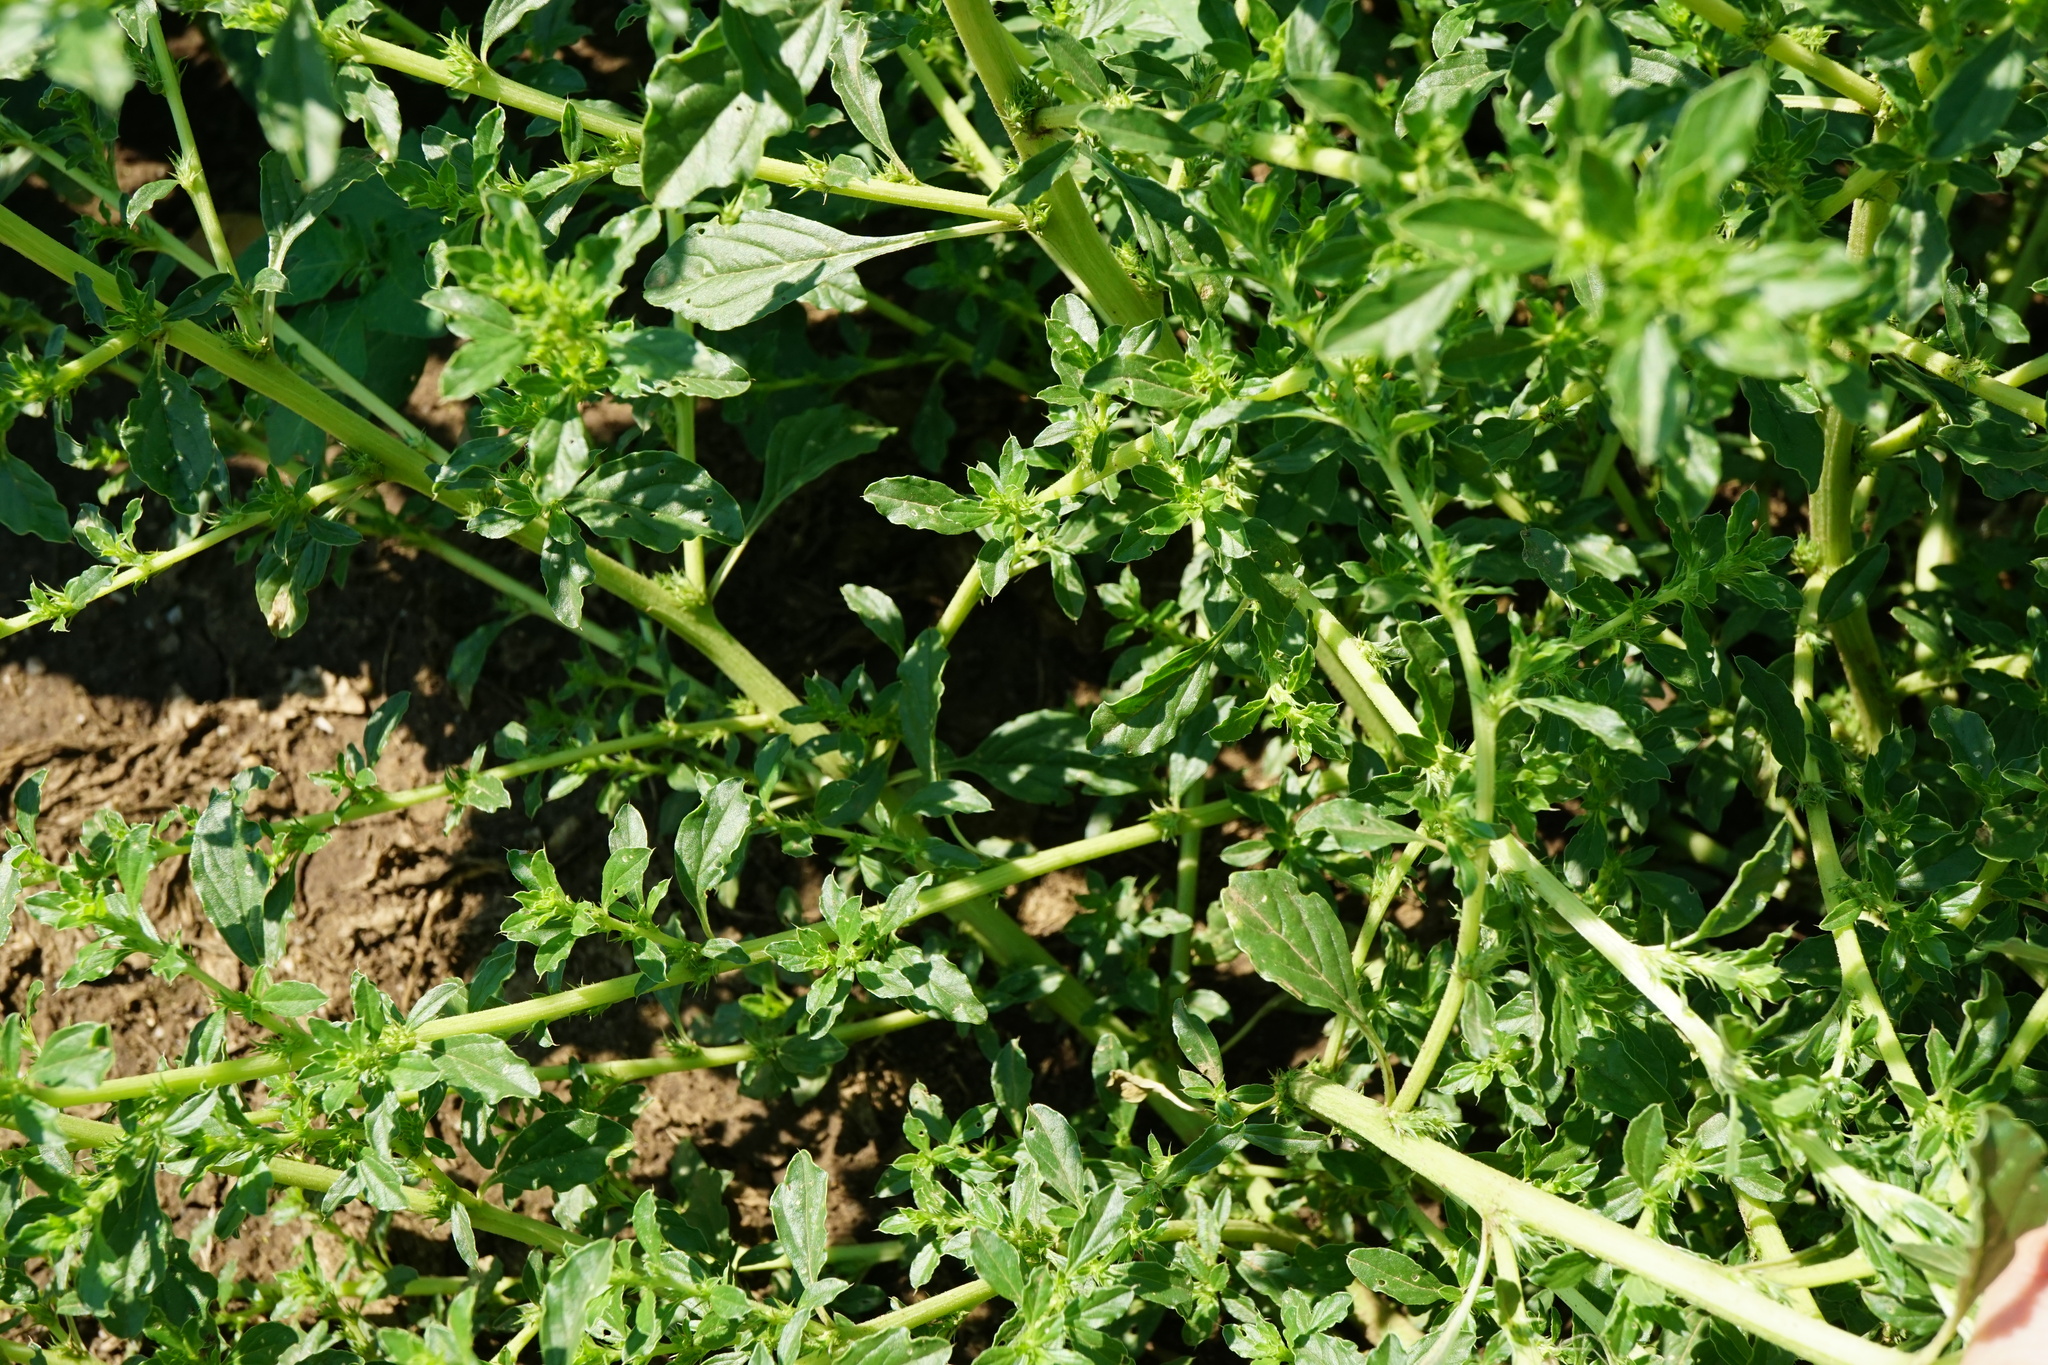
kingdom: Plantae
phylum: Tracheophyta
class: Magnoliopsida
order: Caryophyllales
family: Amaranthaceae
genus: Amaranthus
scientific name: Amaranthus albus
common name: White pigweed
